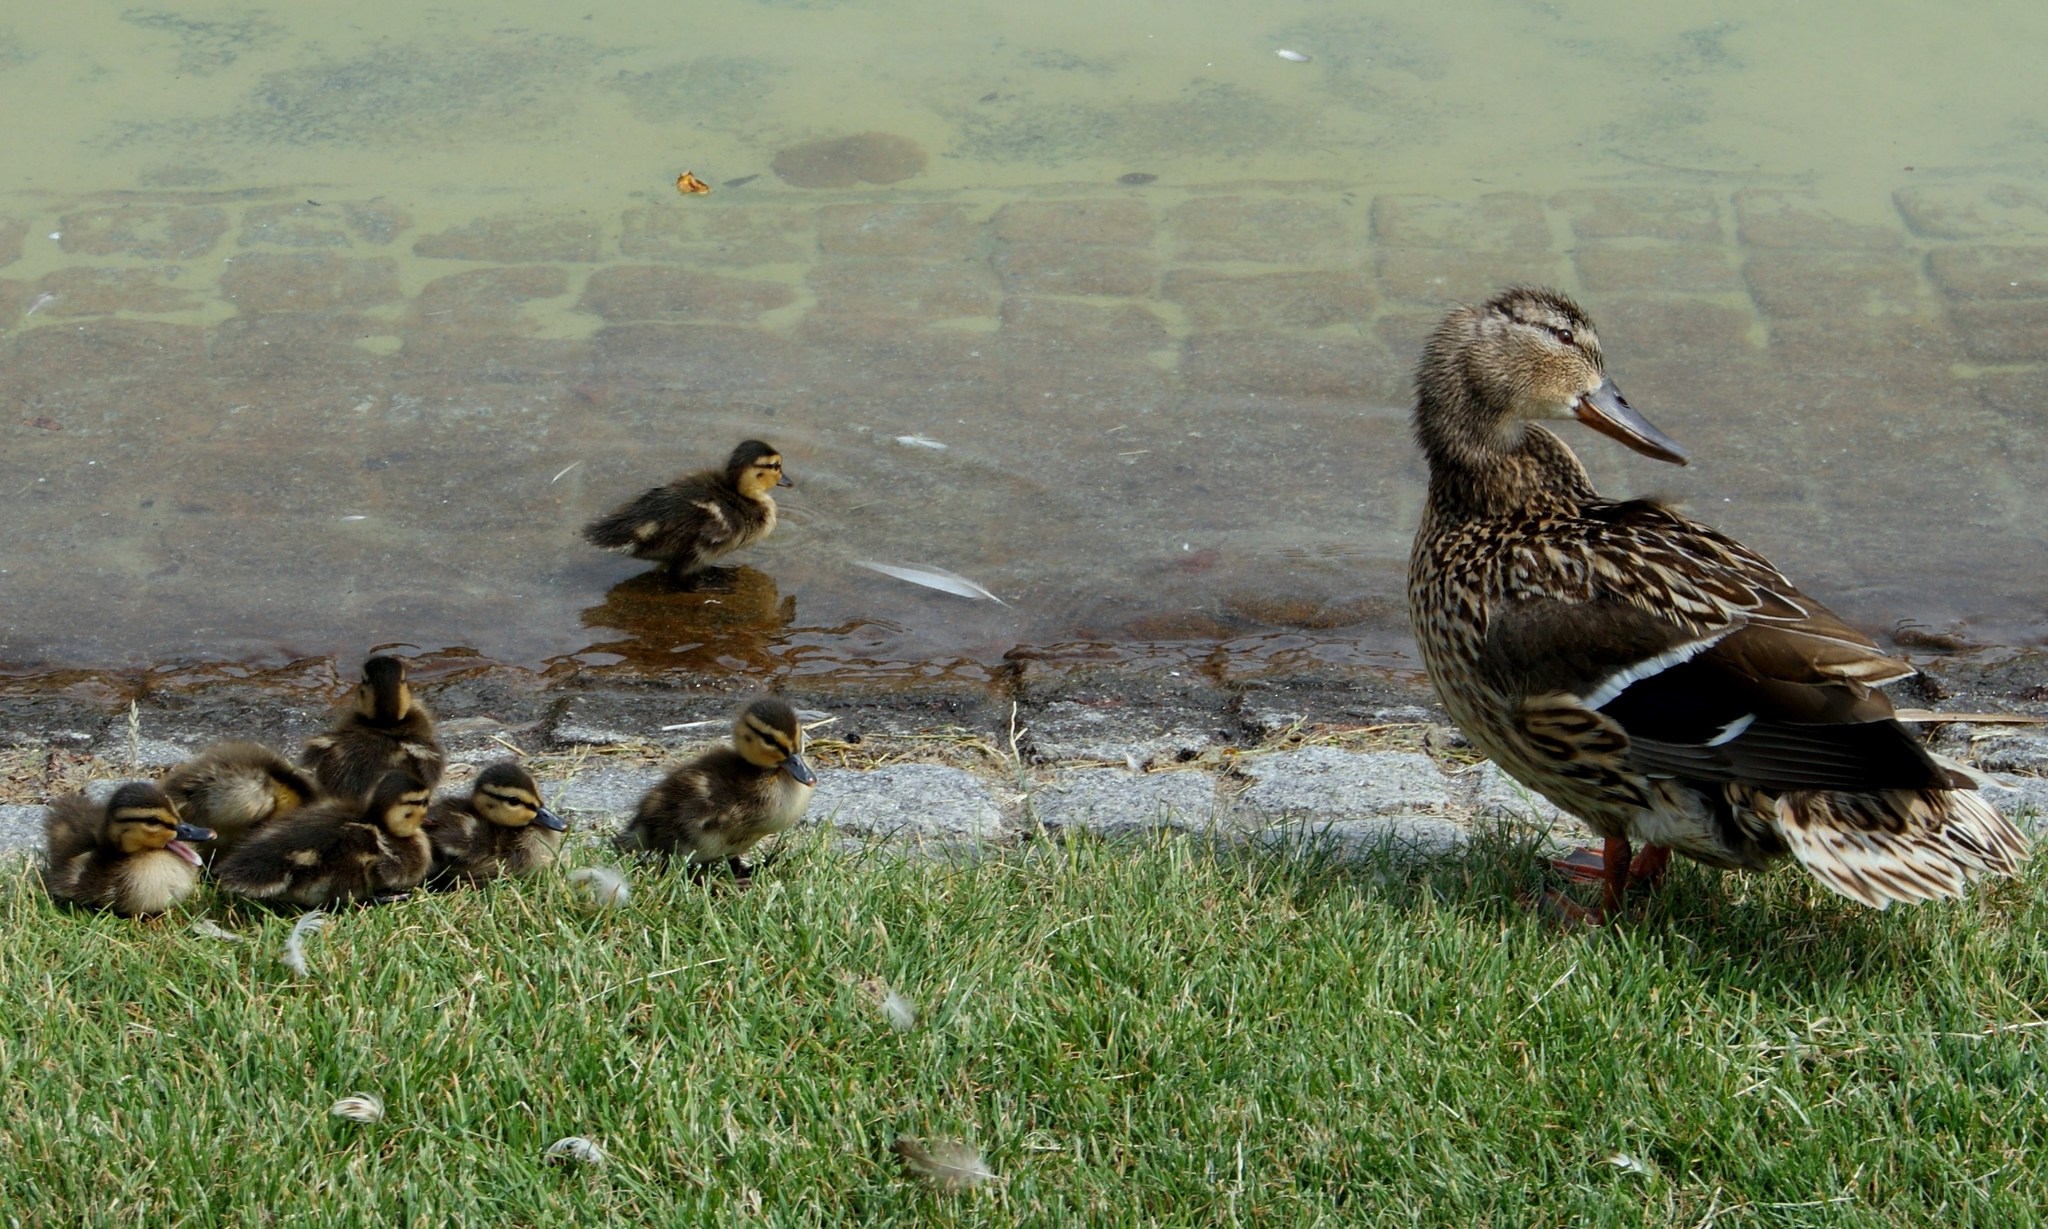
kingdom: Animalia
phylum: Chordata
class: Aves
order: Anseriformes
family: Anatidae
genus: Anas
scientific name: Anas platyrhynchos
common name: Mallard
